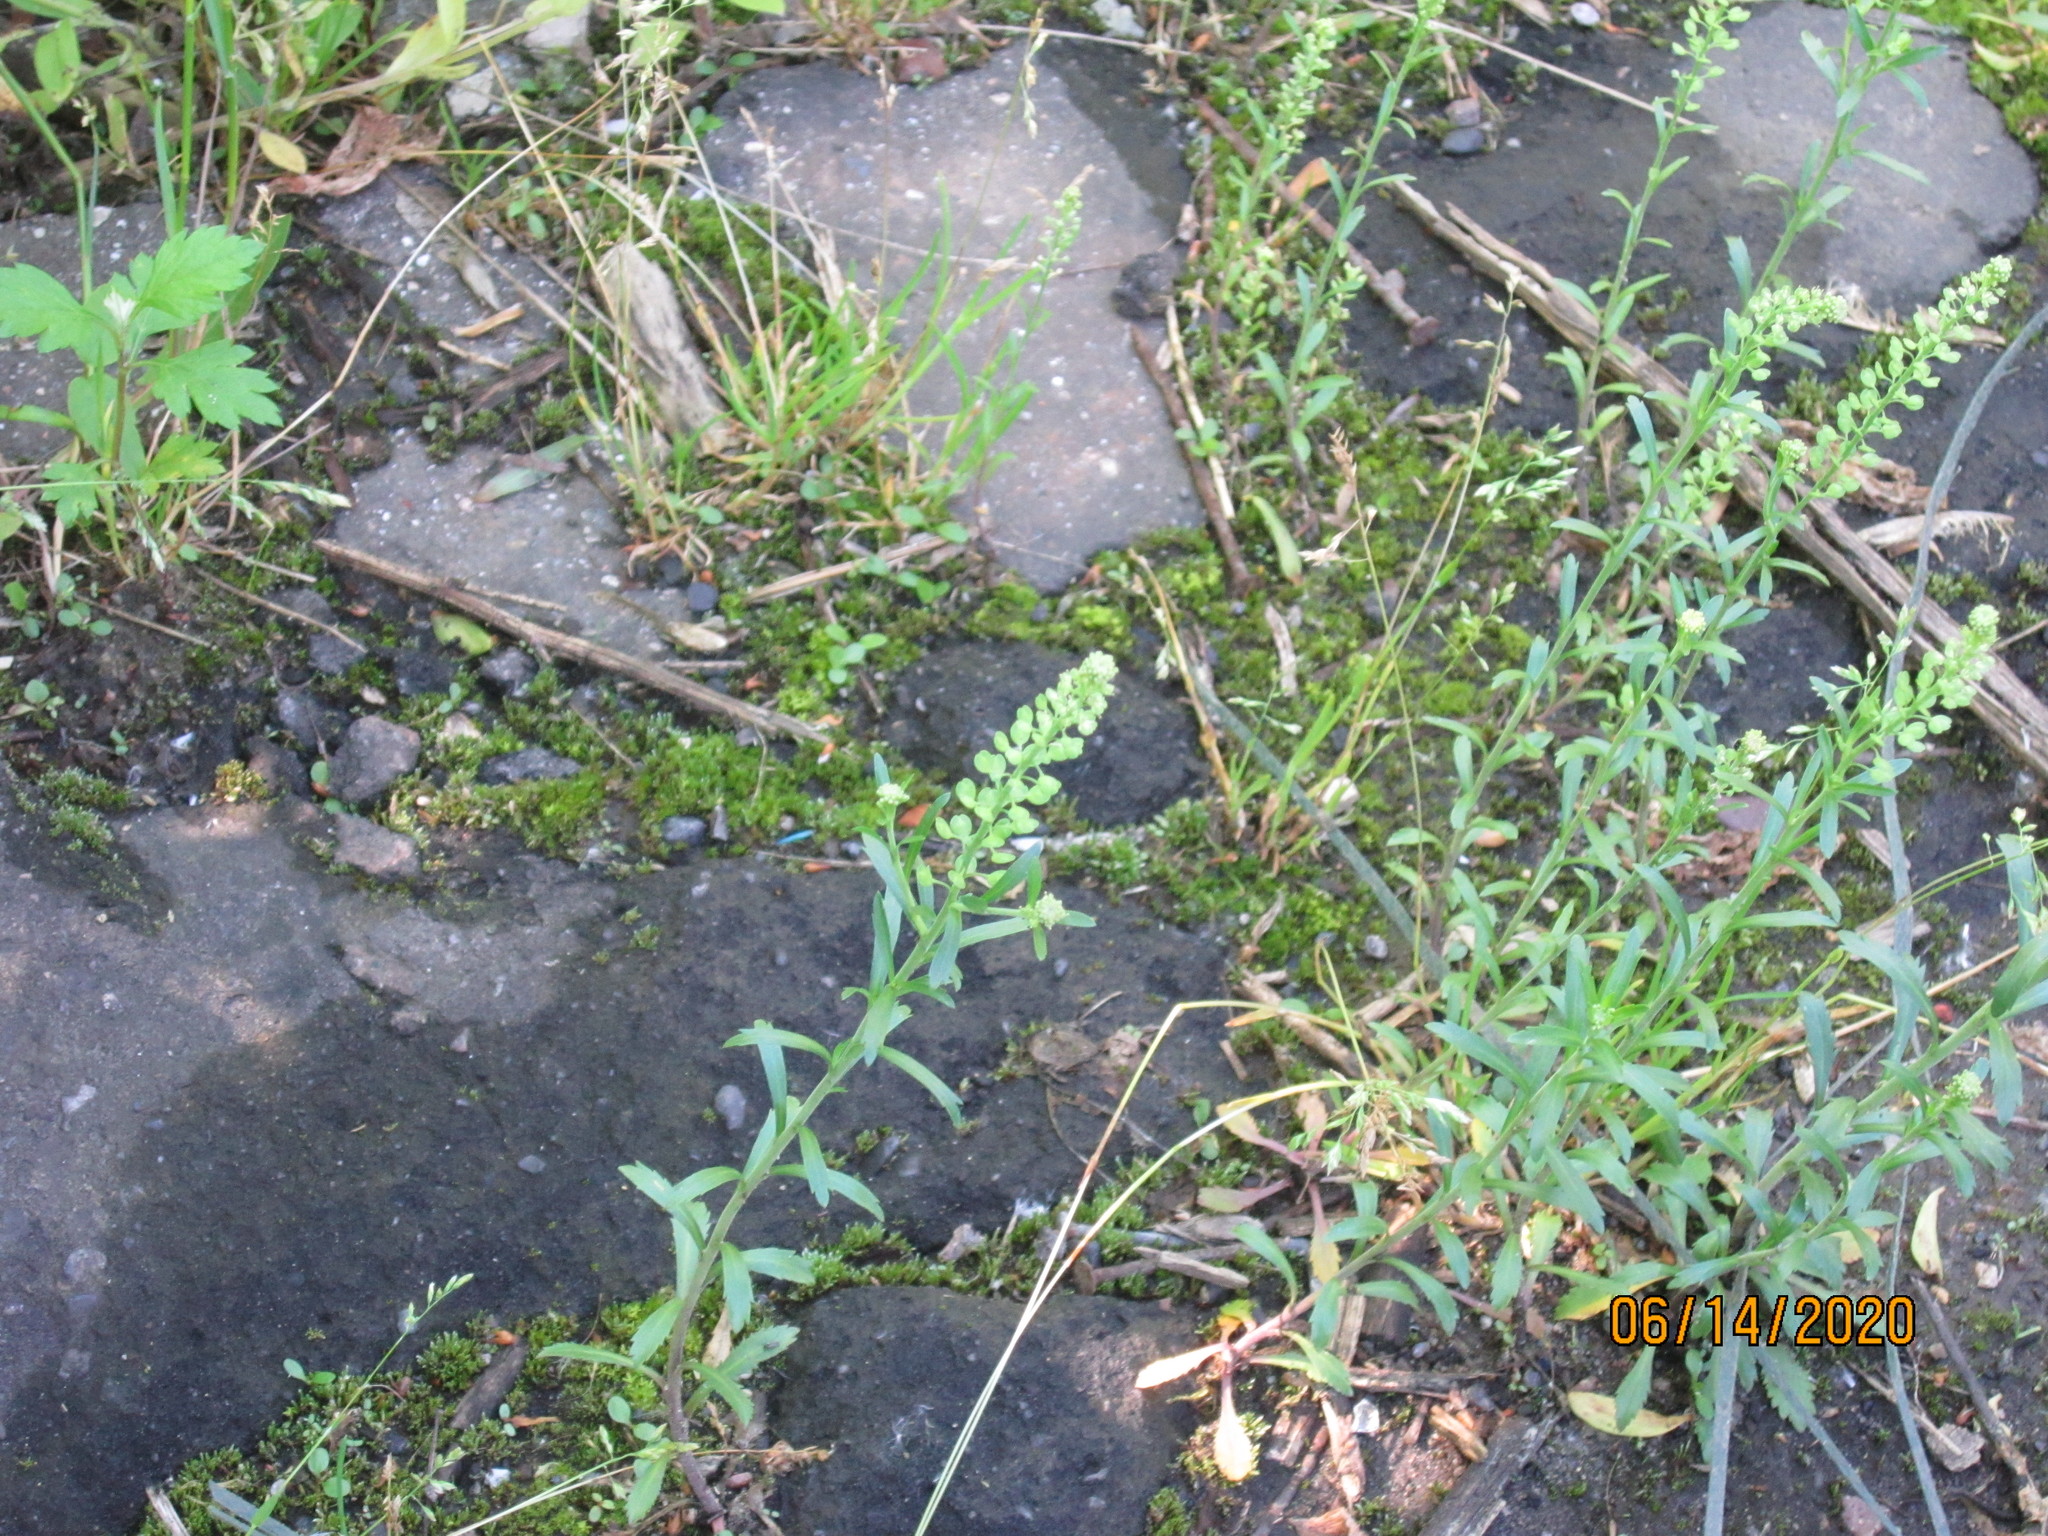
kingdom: Plantae
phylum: Tracheophyta
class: Magnoliopsida
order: Brassicales
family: Brassicaceae
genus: Lepidium
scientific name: Lepidium ruderale
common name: Narrow-leaved pepperwort
